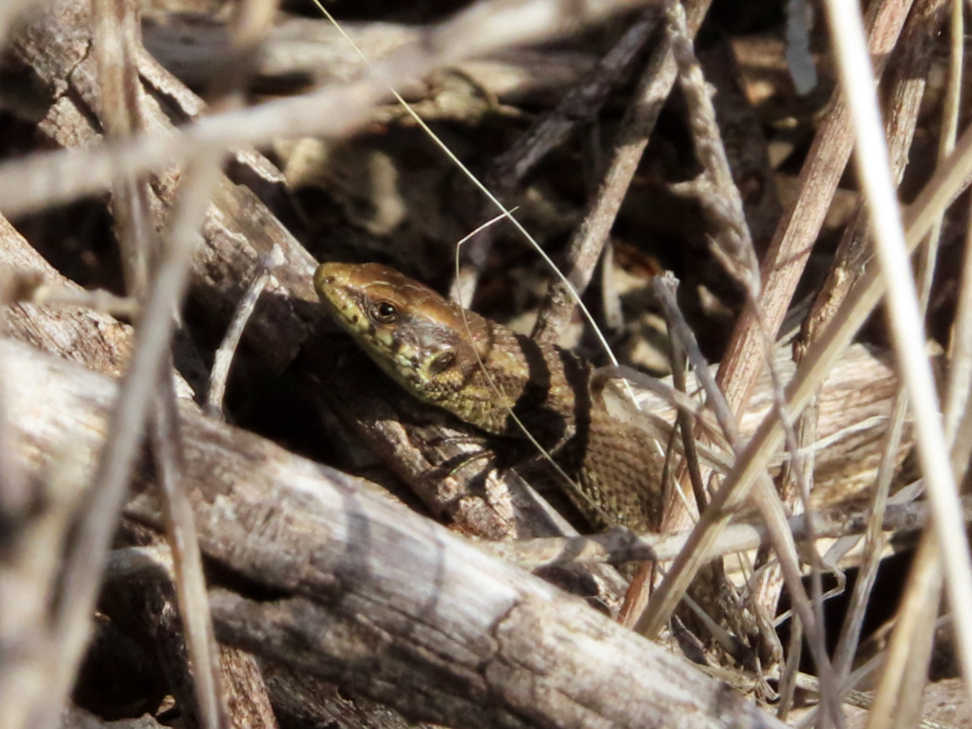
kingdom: Animalia
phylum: Chordata
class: Squamata
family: Lacertidae
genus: Algyroides
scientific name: Algyroides moreoticus
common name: Greek algyroides
